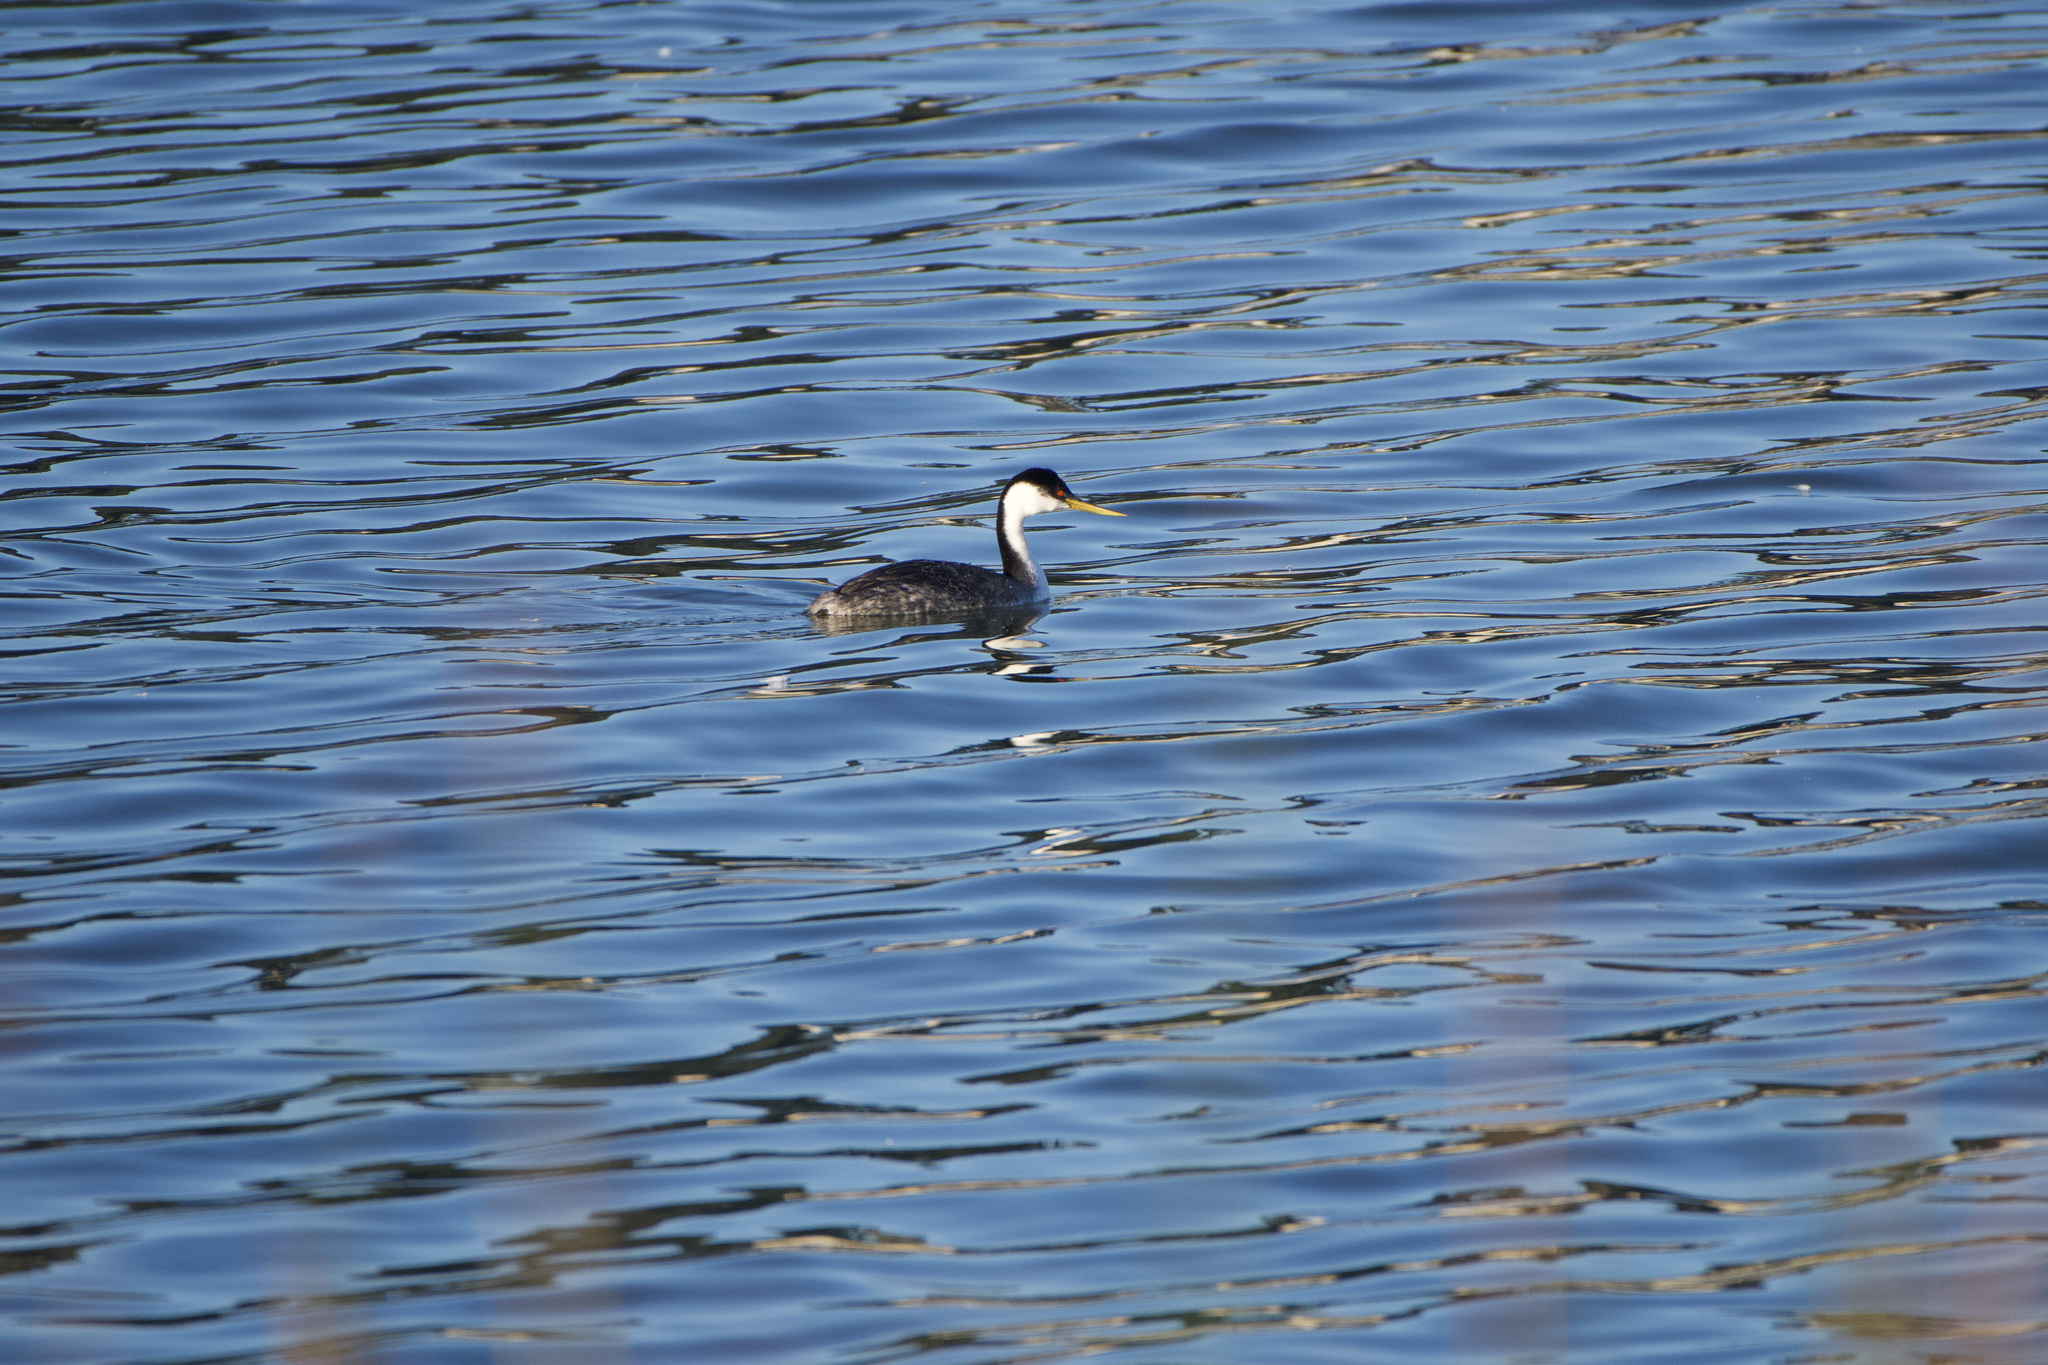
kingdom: Animalia
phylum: Chordata
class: Aves
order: Podicipediformes
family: Podicipedidae
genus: Aechmophorus
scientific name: Aechmophorus occidentalis
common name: Western grebe
